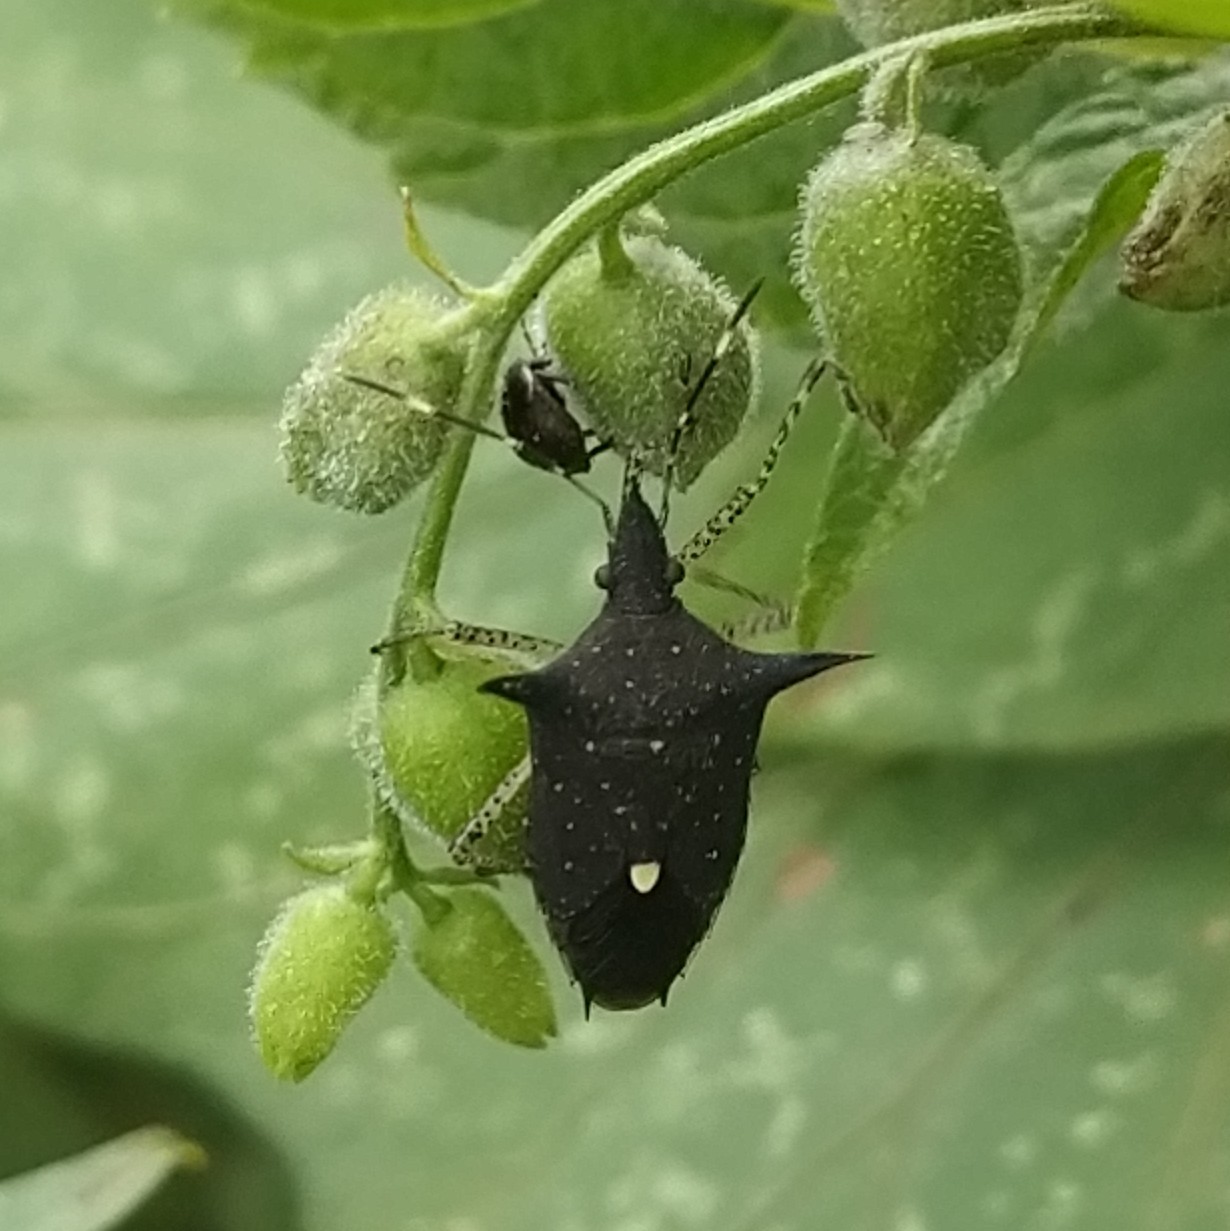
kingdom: Animalia
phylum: Arthropoda
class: Insecta
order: Hemiptera
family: Pentatomidae
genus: Proxys
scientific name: Proxys albopunctulatus
